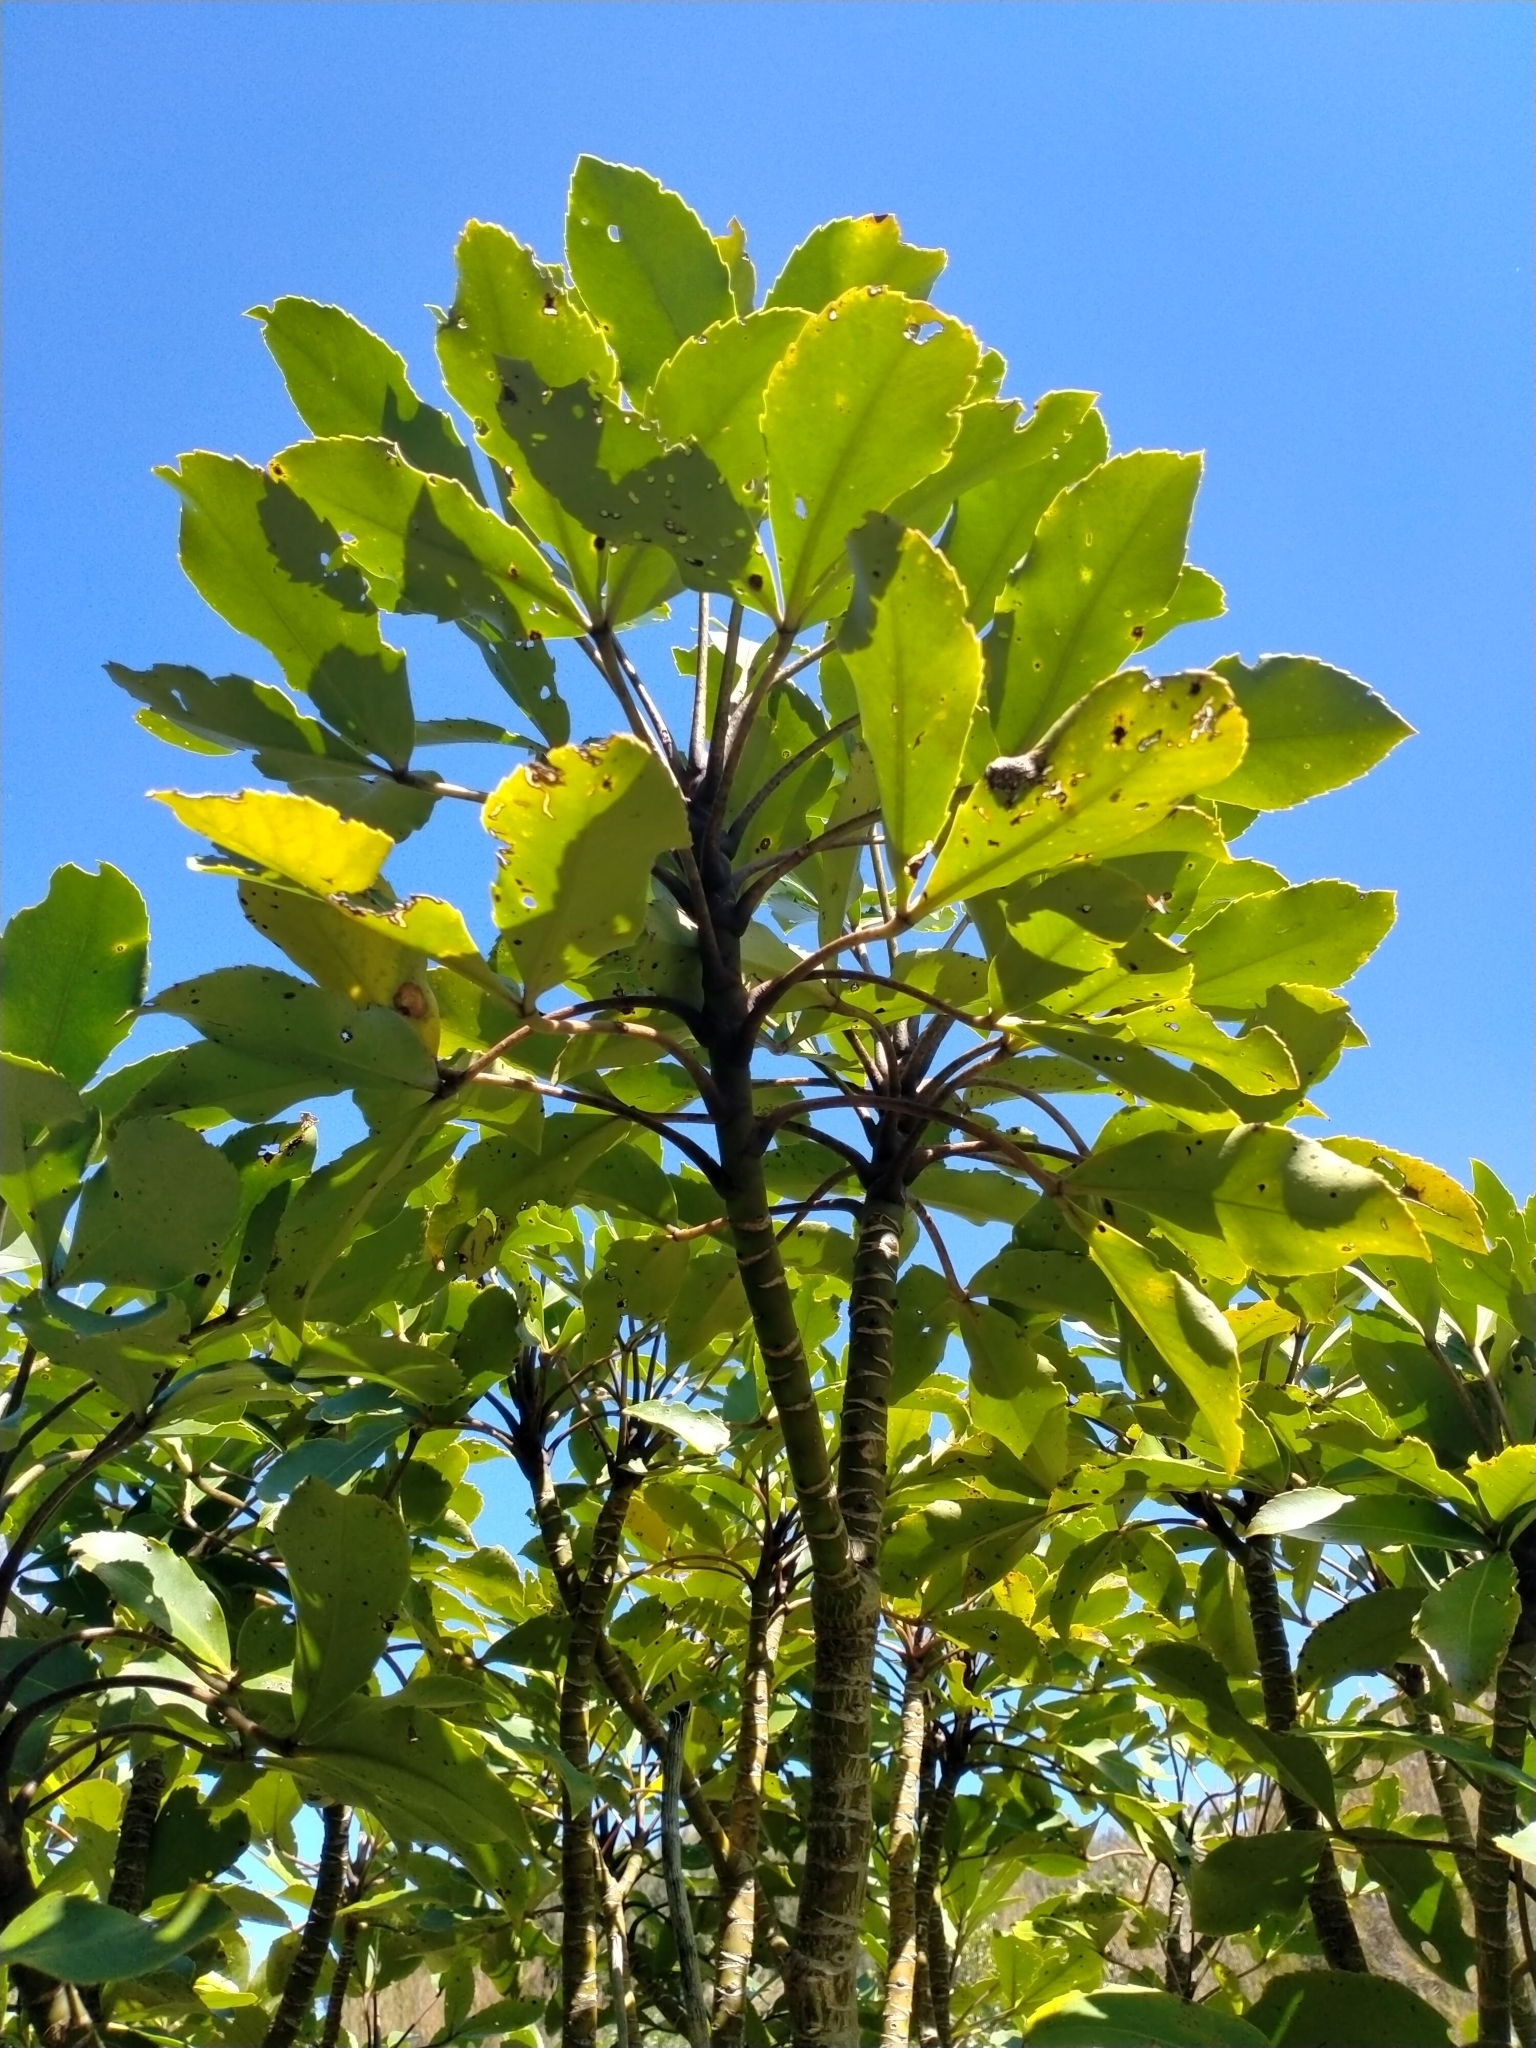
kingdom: Plantae
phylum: Tracheophyta
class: Magnoliopsida
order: Apiales
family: Araliaceae
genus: Neopanax
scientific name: Neopanax colensoi
